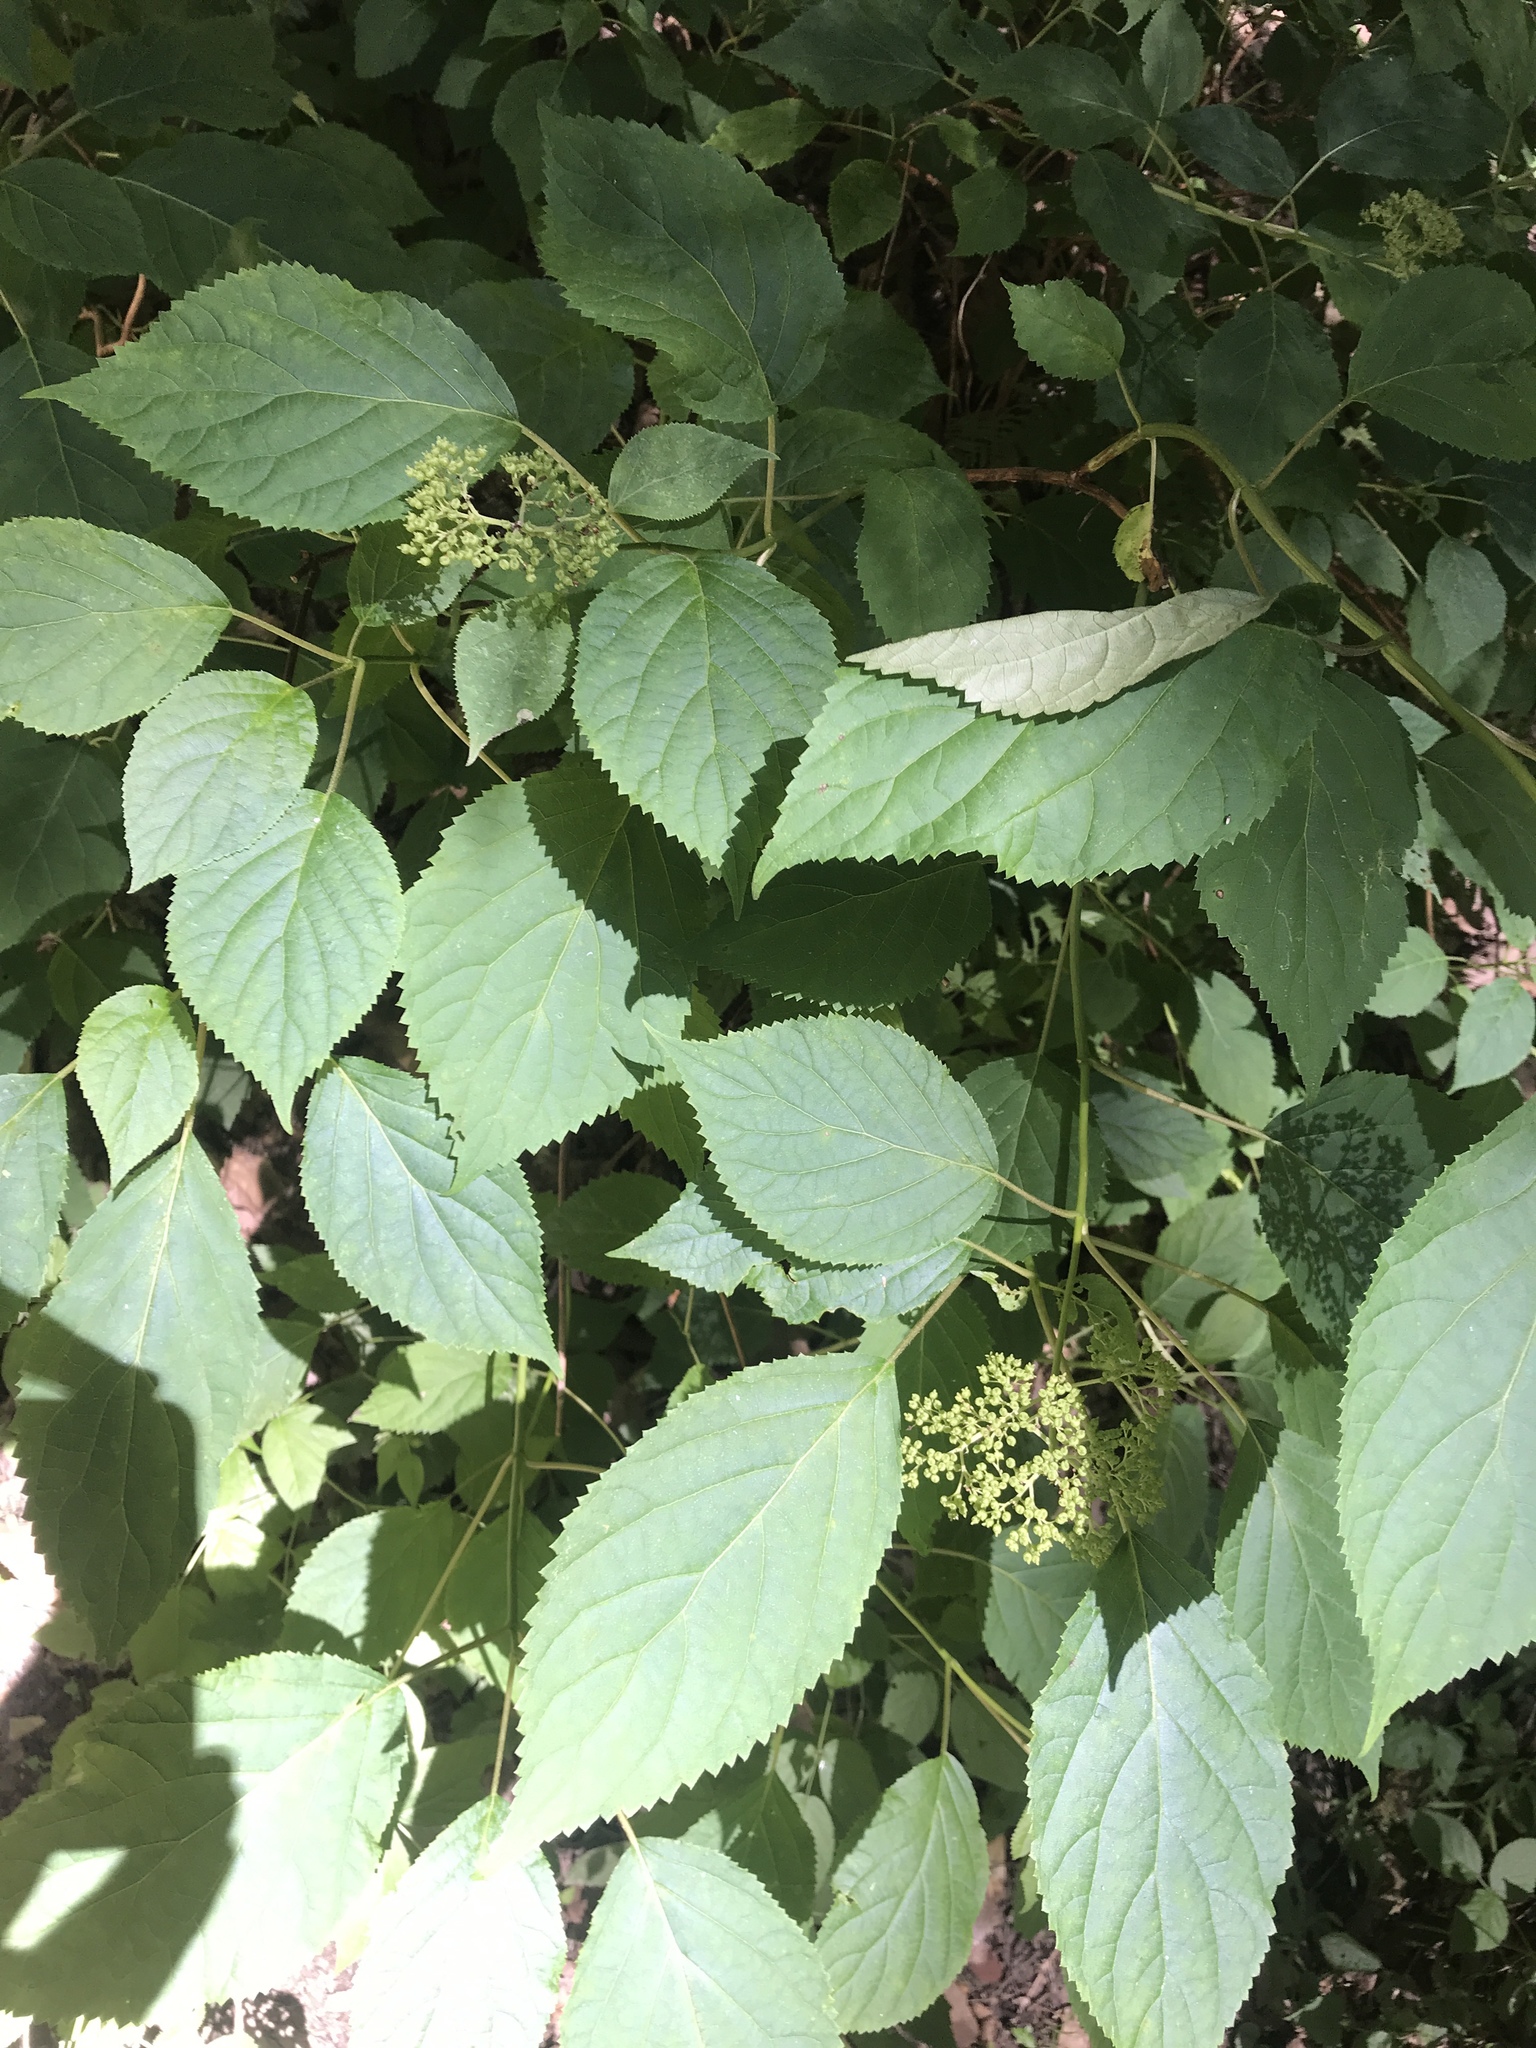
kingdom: Plantae
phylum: Tracheophyta
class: Magnoliopsida
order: Cornales
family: Hydrangeaceae
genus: Hydrangea
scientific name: Hydrangea arborescens
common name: Sevenbark
